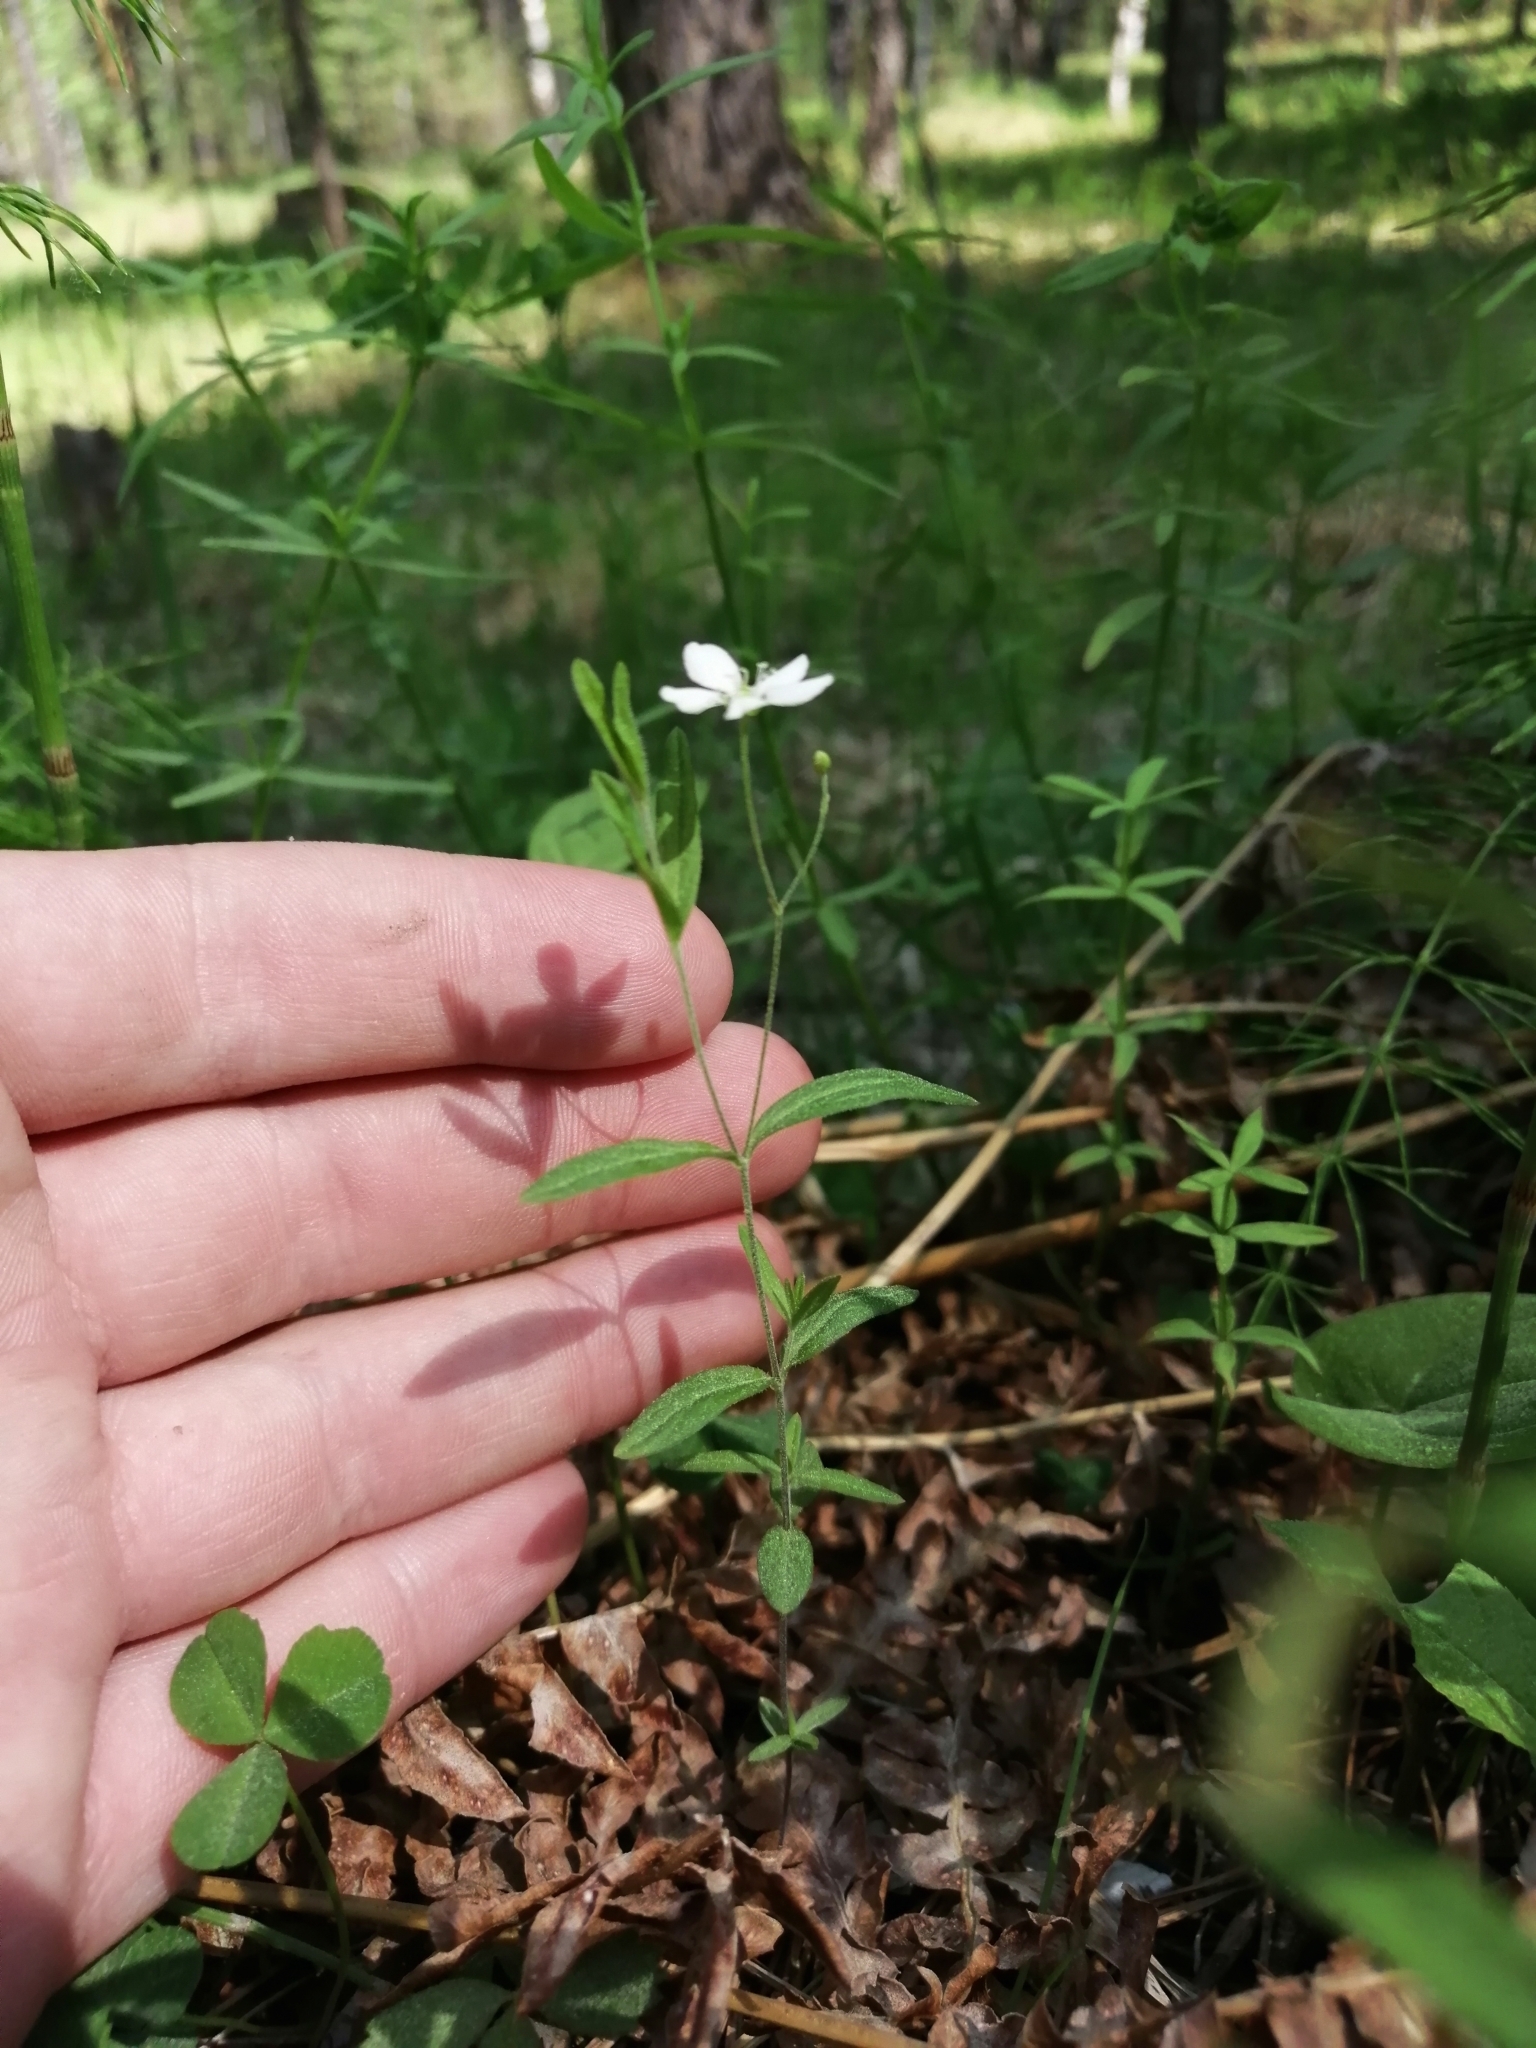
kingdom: Plantae
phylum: Tracheophyta
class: Magnoliopsida
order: Caryophyllales
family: Caryophyllaceae
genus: Moehringia
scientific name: Moehringia lateriflora
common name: Blunt-leaved sandwort
